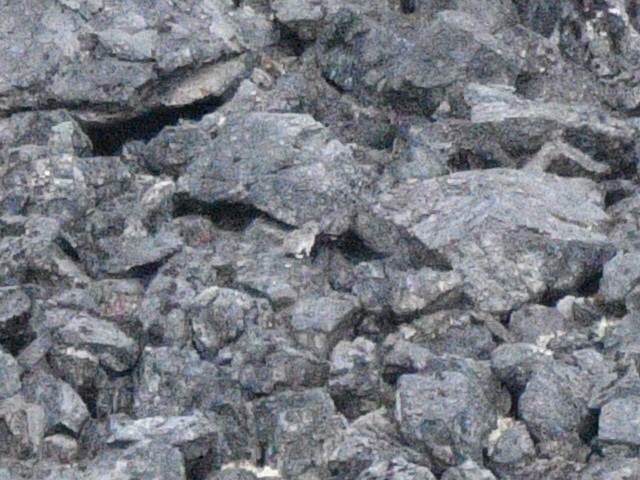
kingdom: Animalia
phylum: Chordata
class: Mammalia
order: Lagomorpha
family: Ochotonidae
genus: Ochotona
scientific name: Ochotona collaris
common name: Collared pika
